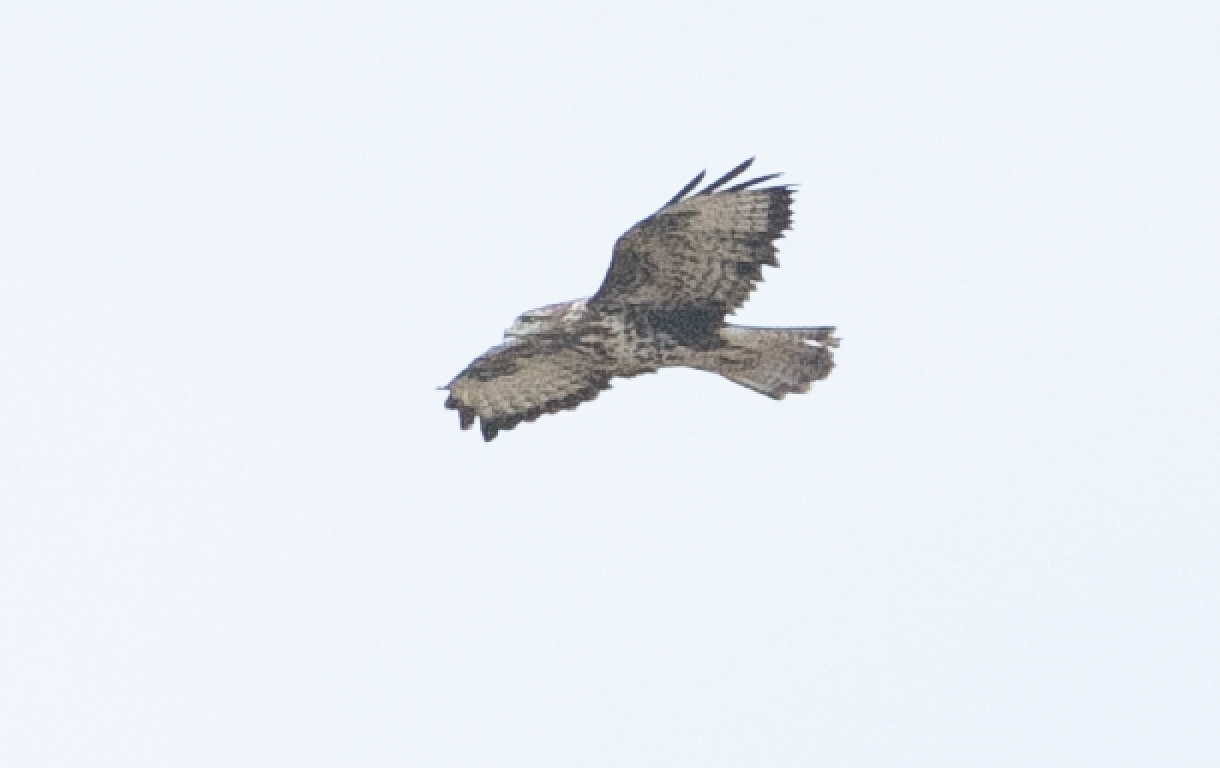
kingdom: Animalia
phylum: Chordata
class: Aves
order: Accipitriformes
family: Accipitridae
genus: Buteo
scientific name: Buteo buteo
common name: Common buzzard
